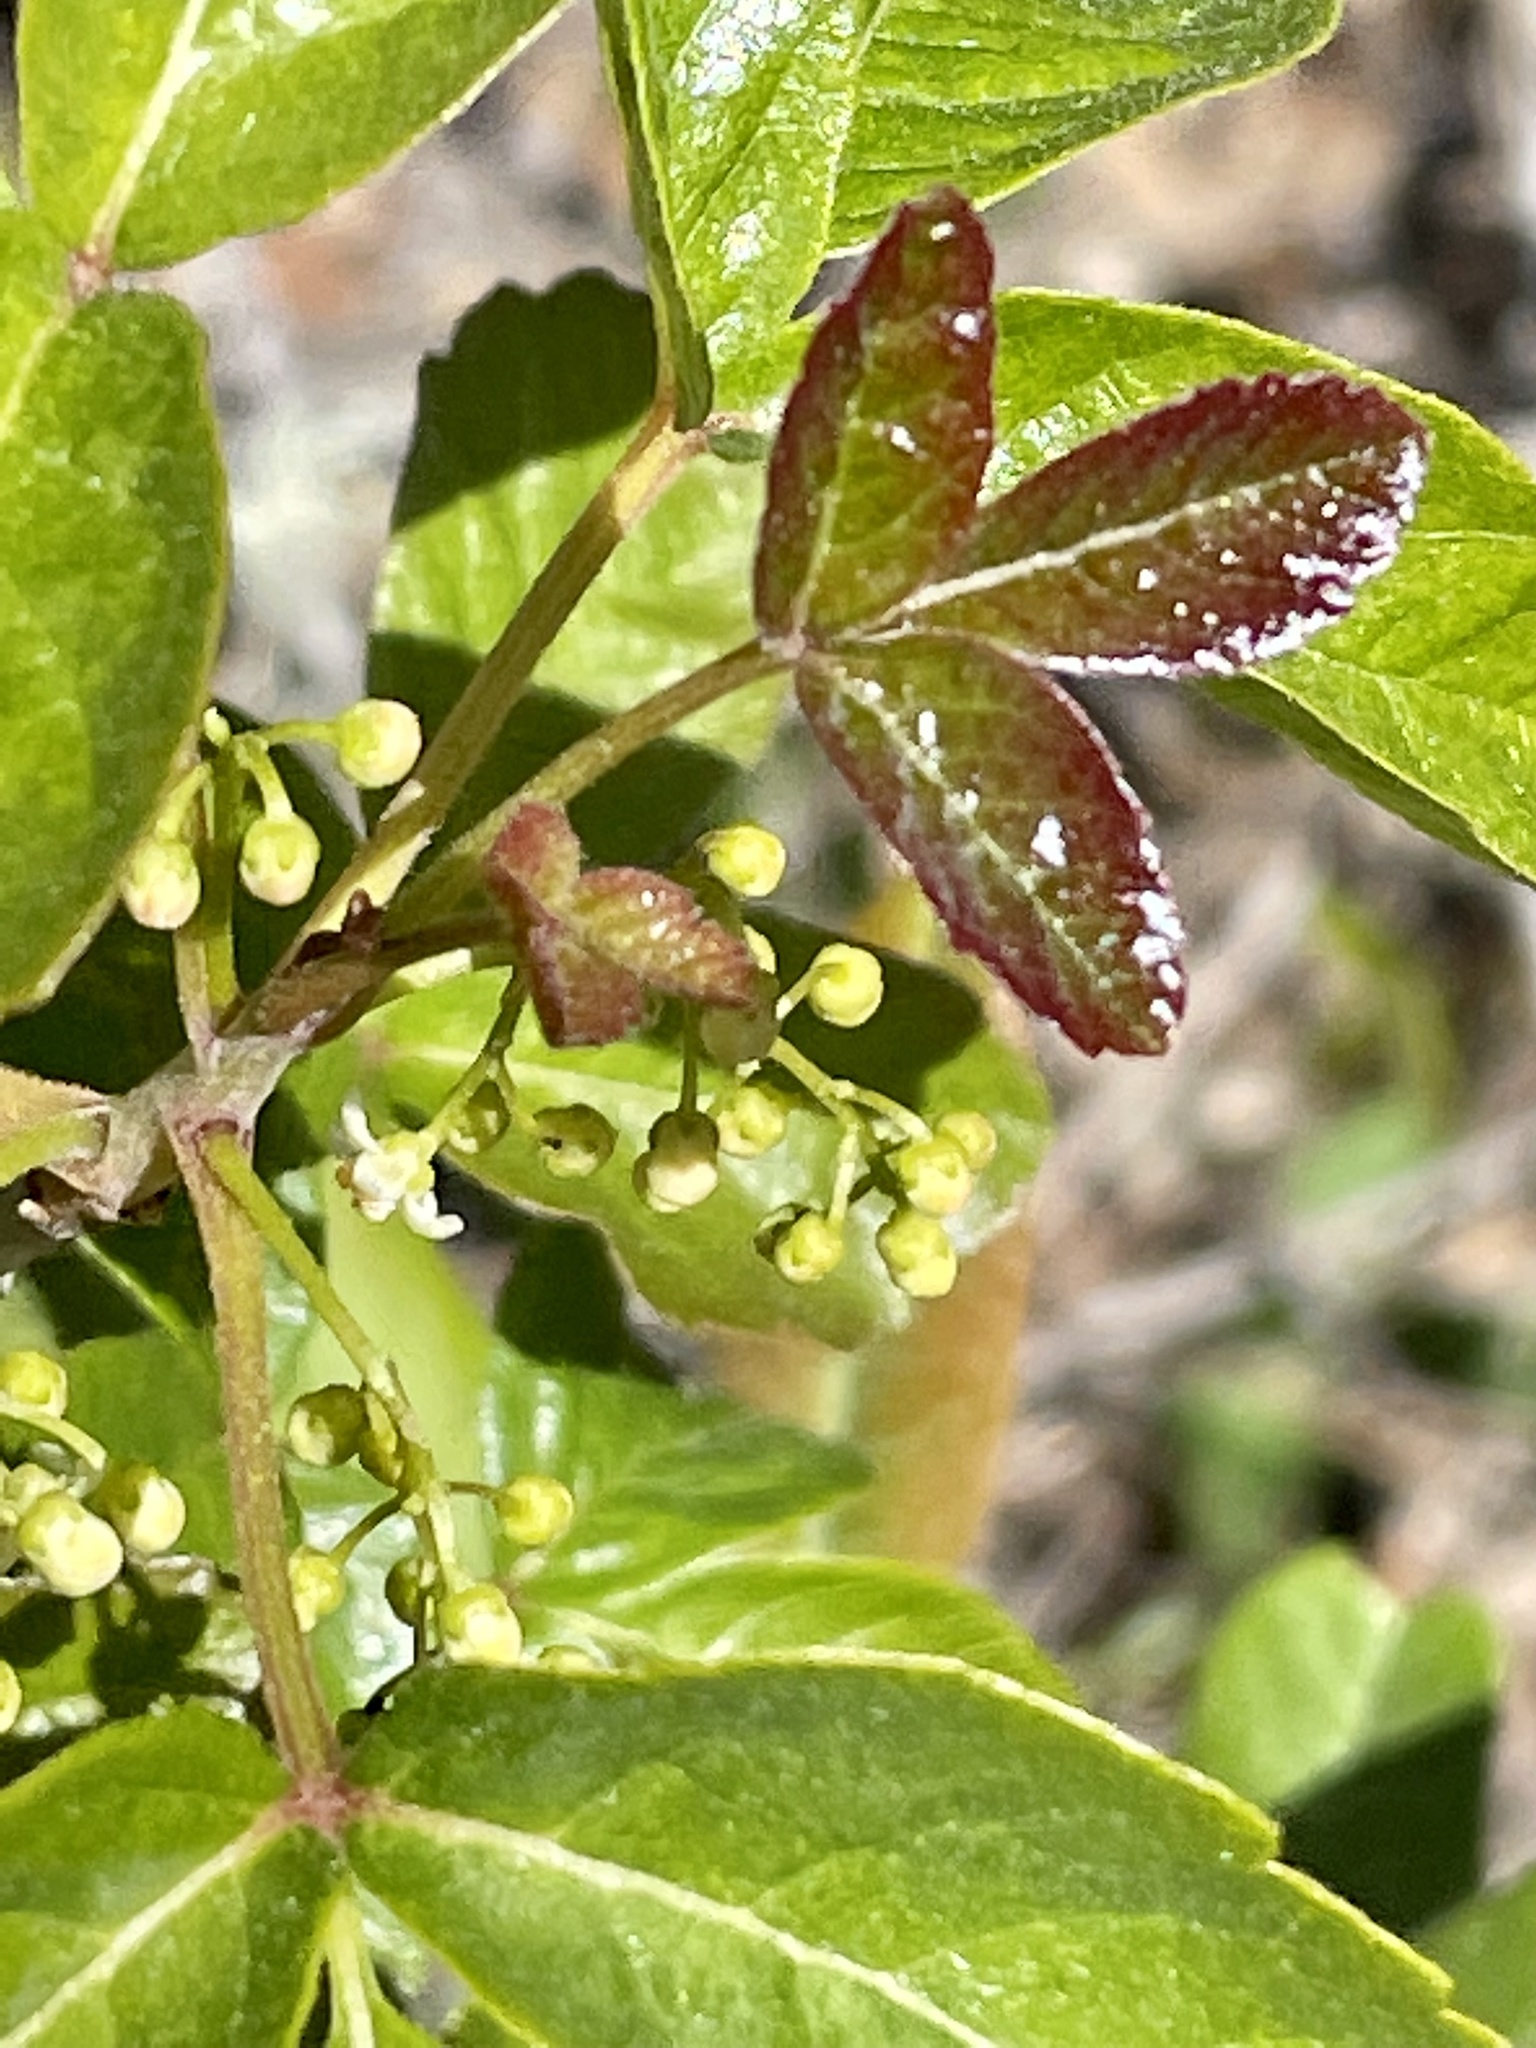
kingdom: Plantae
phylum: Tracheophyta
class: Magnoliopsida
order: Sapindales
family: Anacardiaceae
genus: Toxicodendron
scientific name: Toxicodendron diversilobum
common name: Pacific poison-oak
